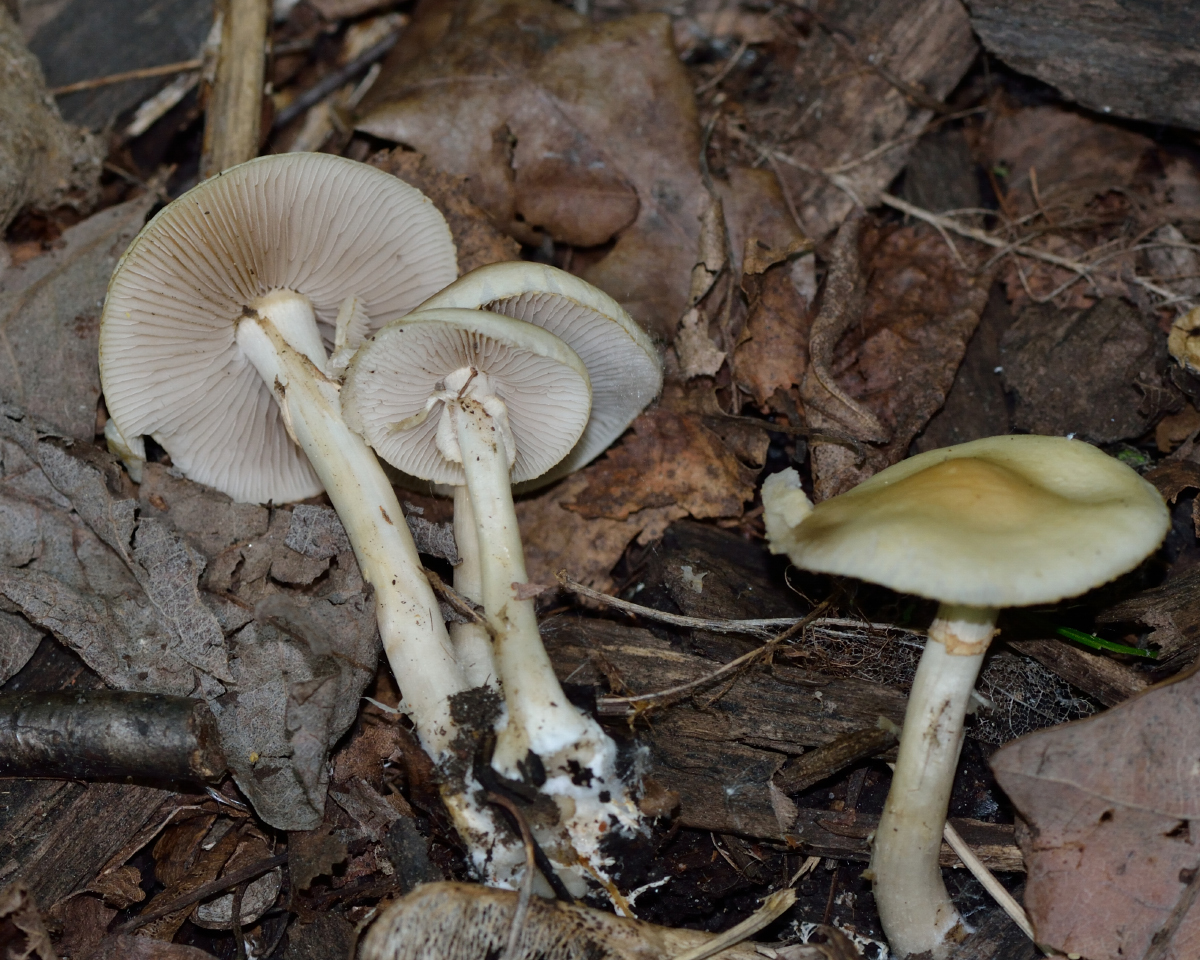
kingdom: Fungi
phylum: Basidiomycota
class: Agaricomycetes
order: Agaricales
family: Strophariaceae
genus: Agrocybe
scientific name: Agrocybe praecox
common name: Spring fieldcap
